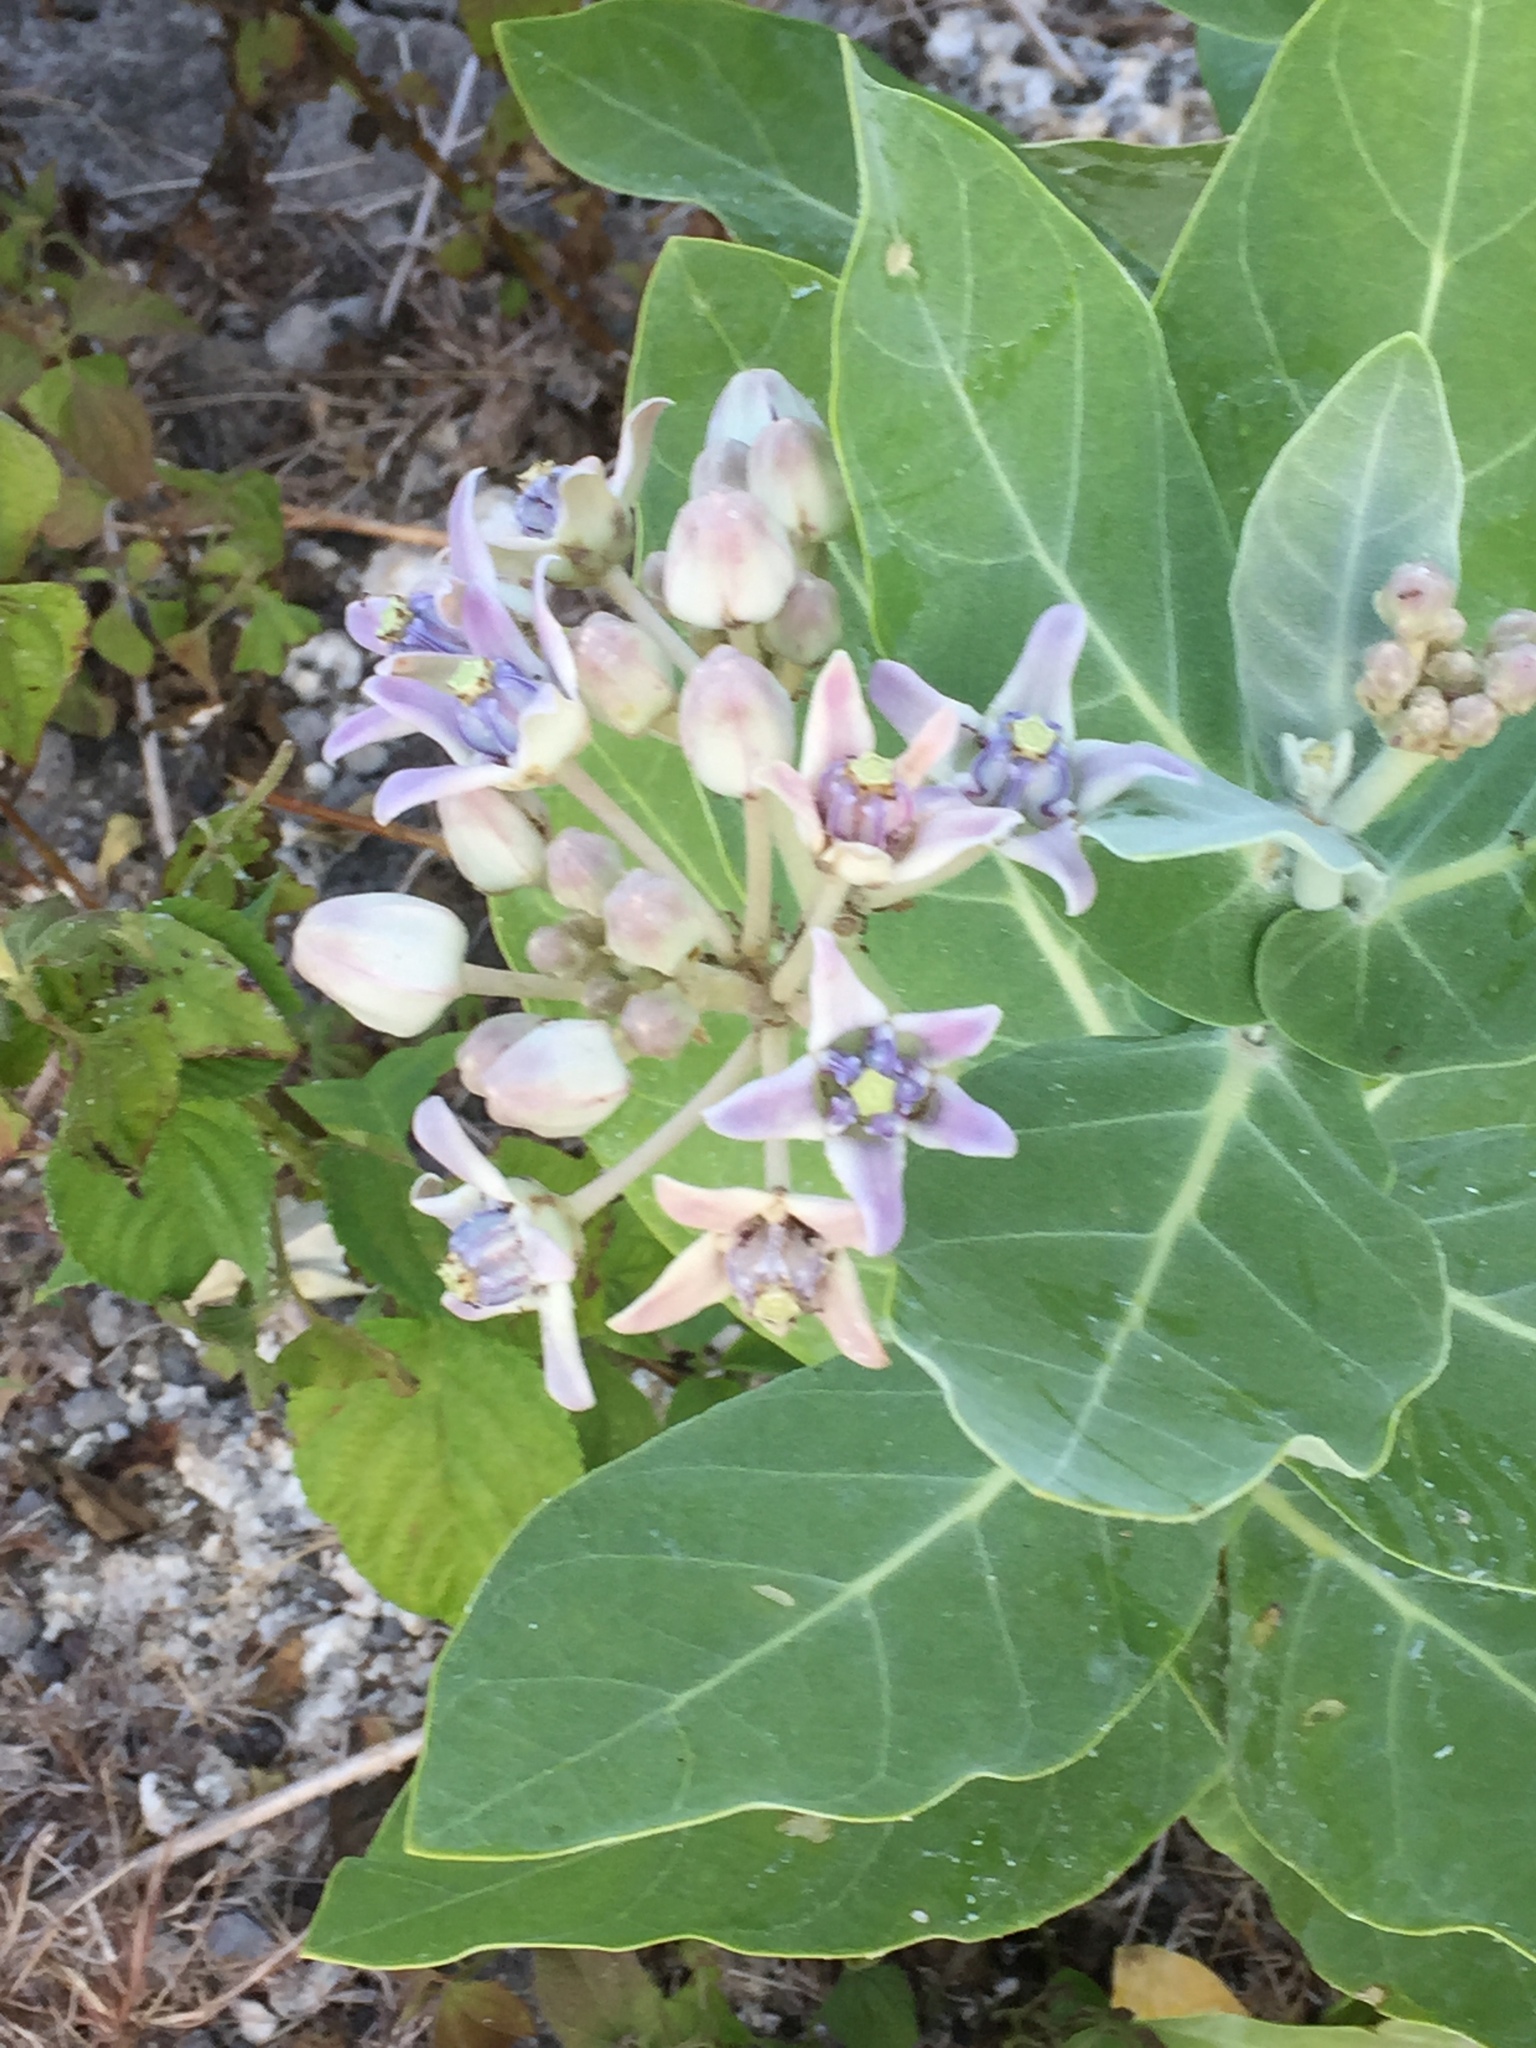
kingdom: Plantae
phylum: Tracheophyta
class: Magnoliopsida
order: Gentianales
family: Apocynaceae
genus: Calotropis
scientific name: Calotropis gigantea
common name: Crown flower
